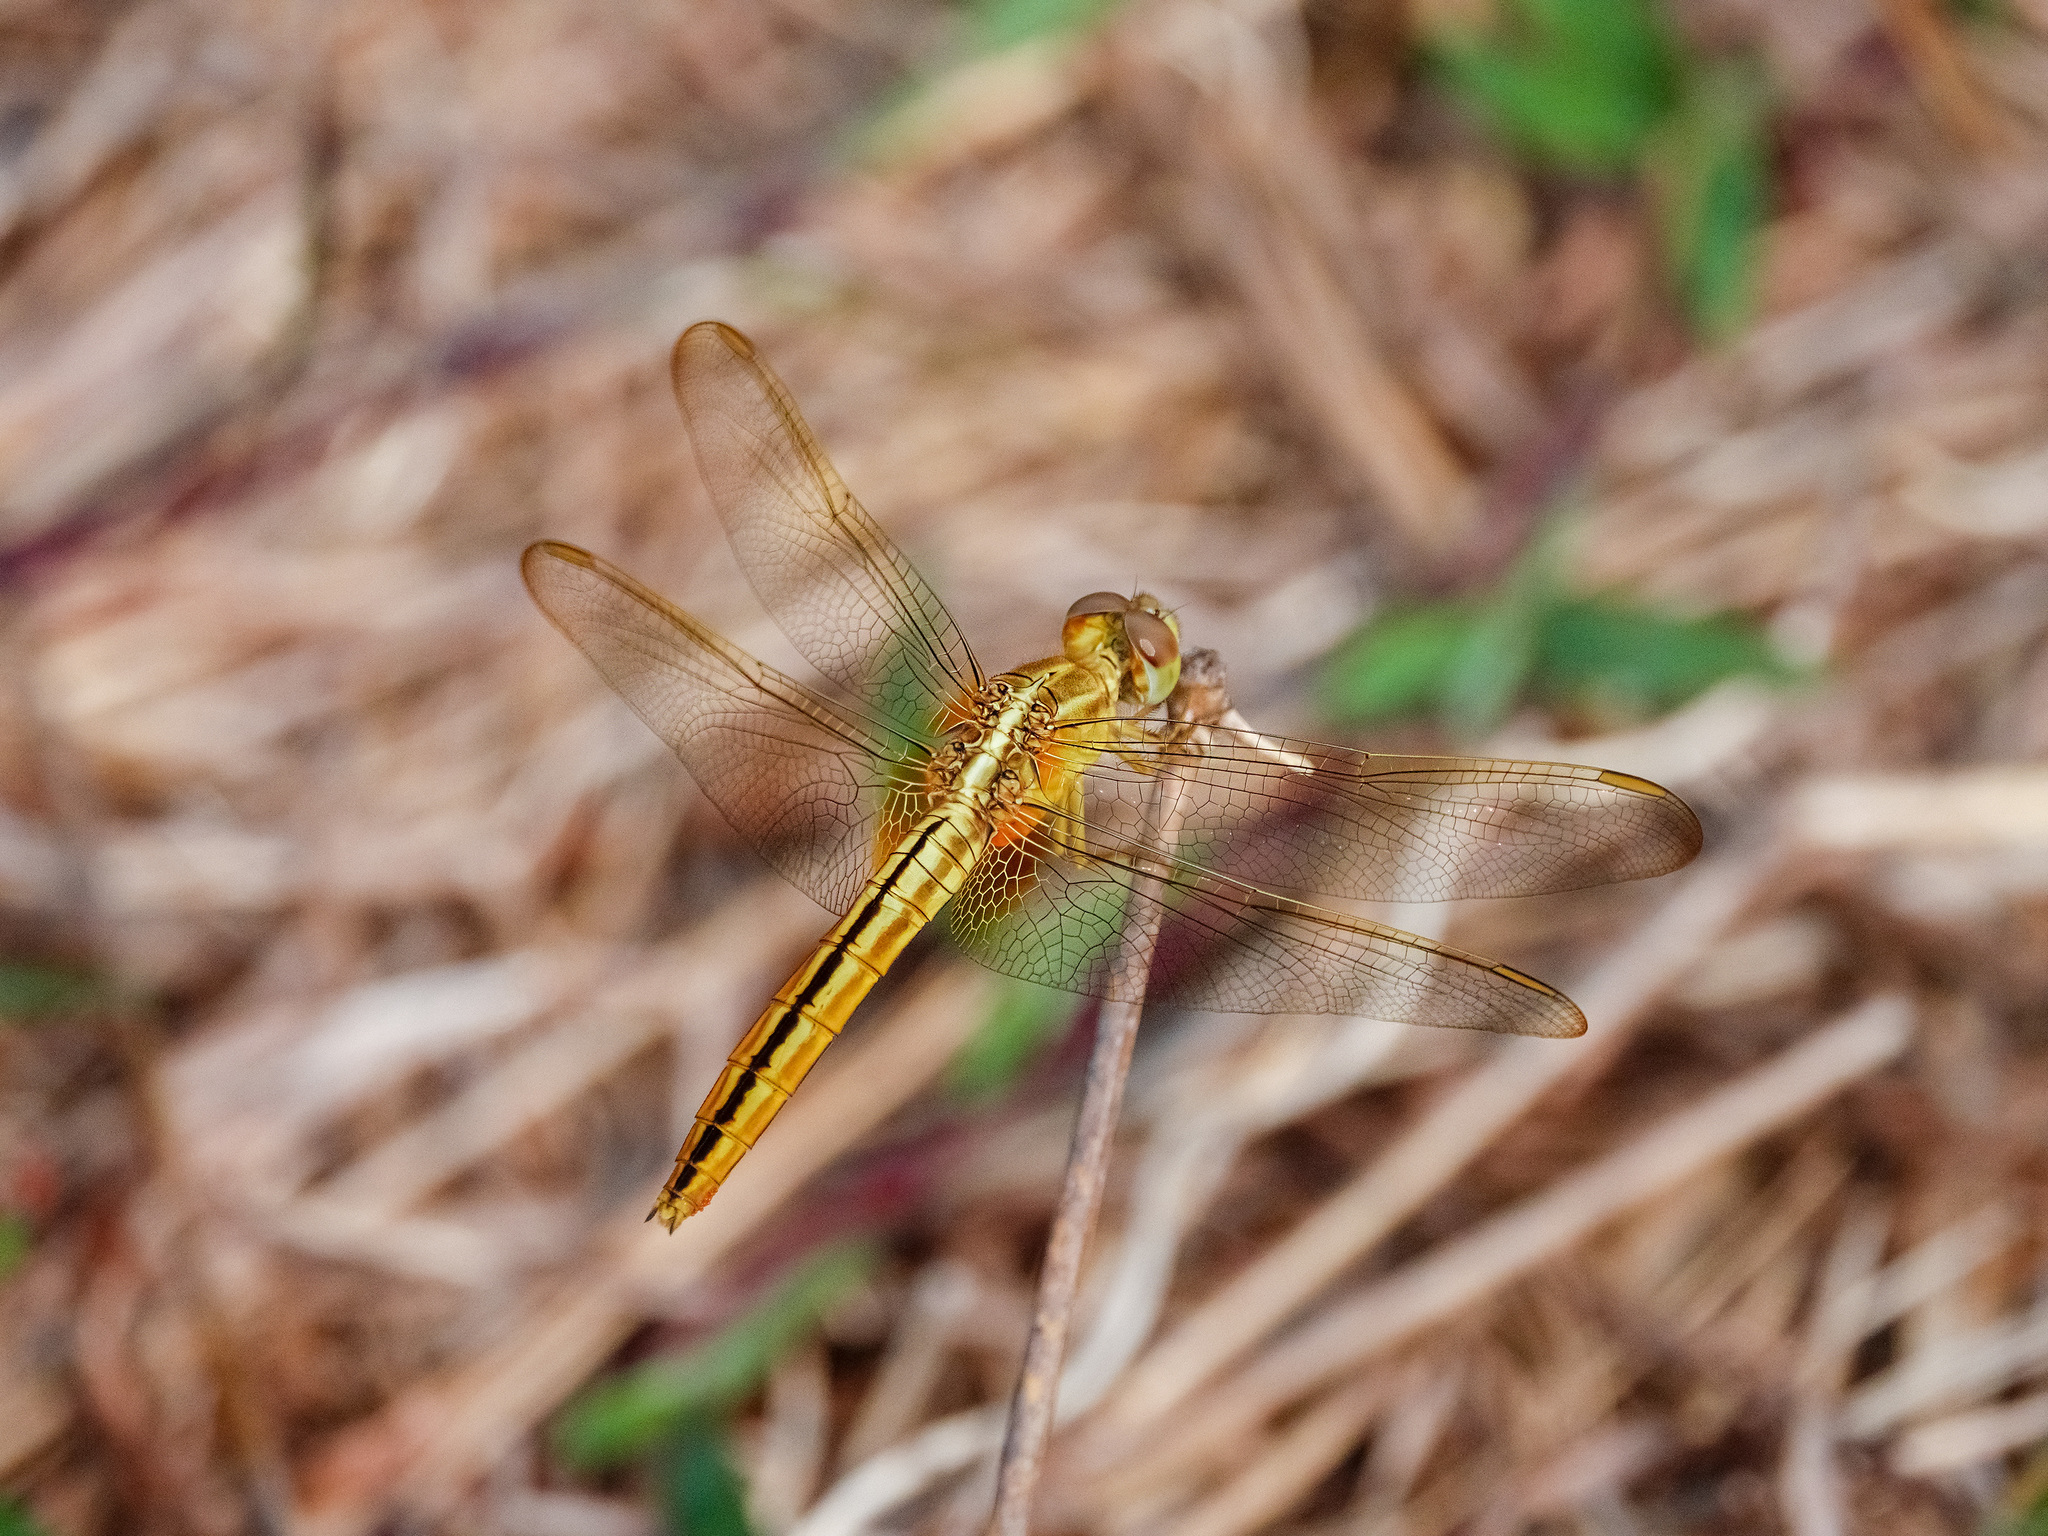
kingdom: Animalia
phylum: Arthropoda
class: Insecta
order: Odonata
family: Libellulidae
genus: Crocothemis
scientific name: Crocothemis servilia
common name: Scarlet skimmer
